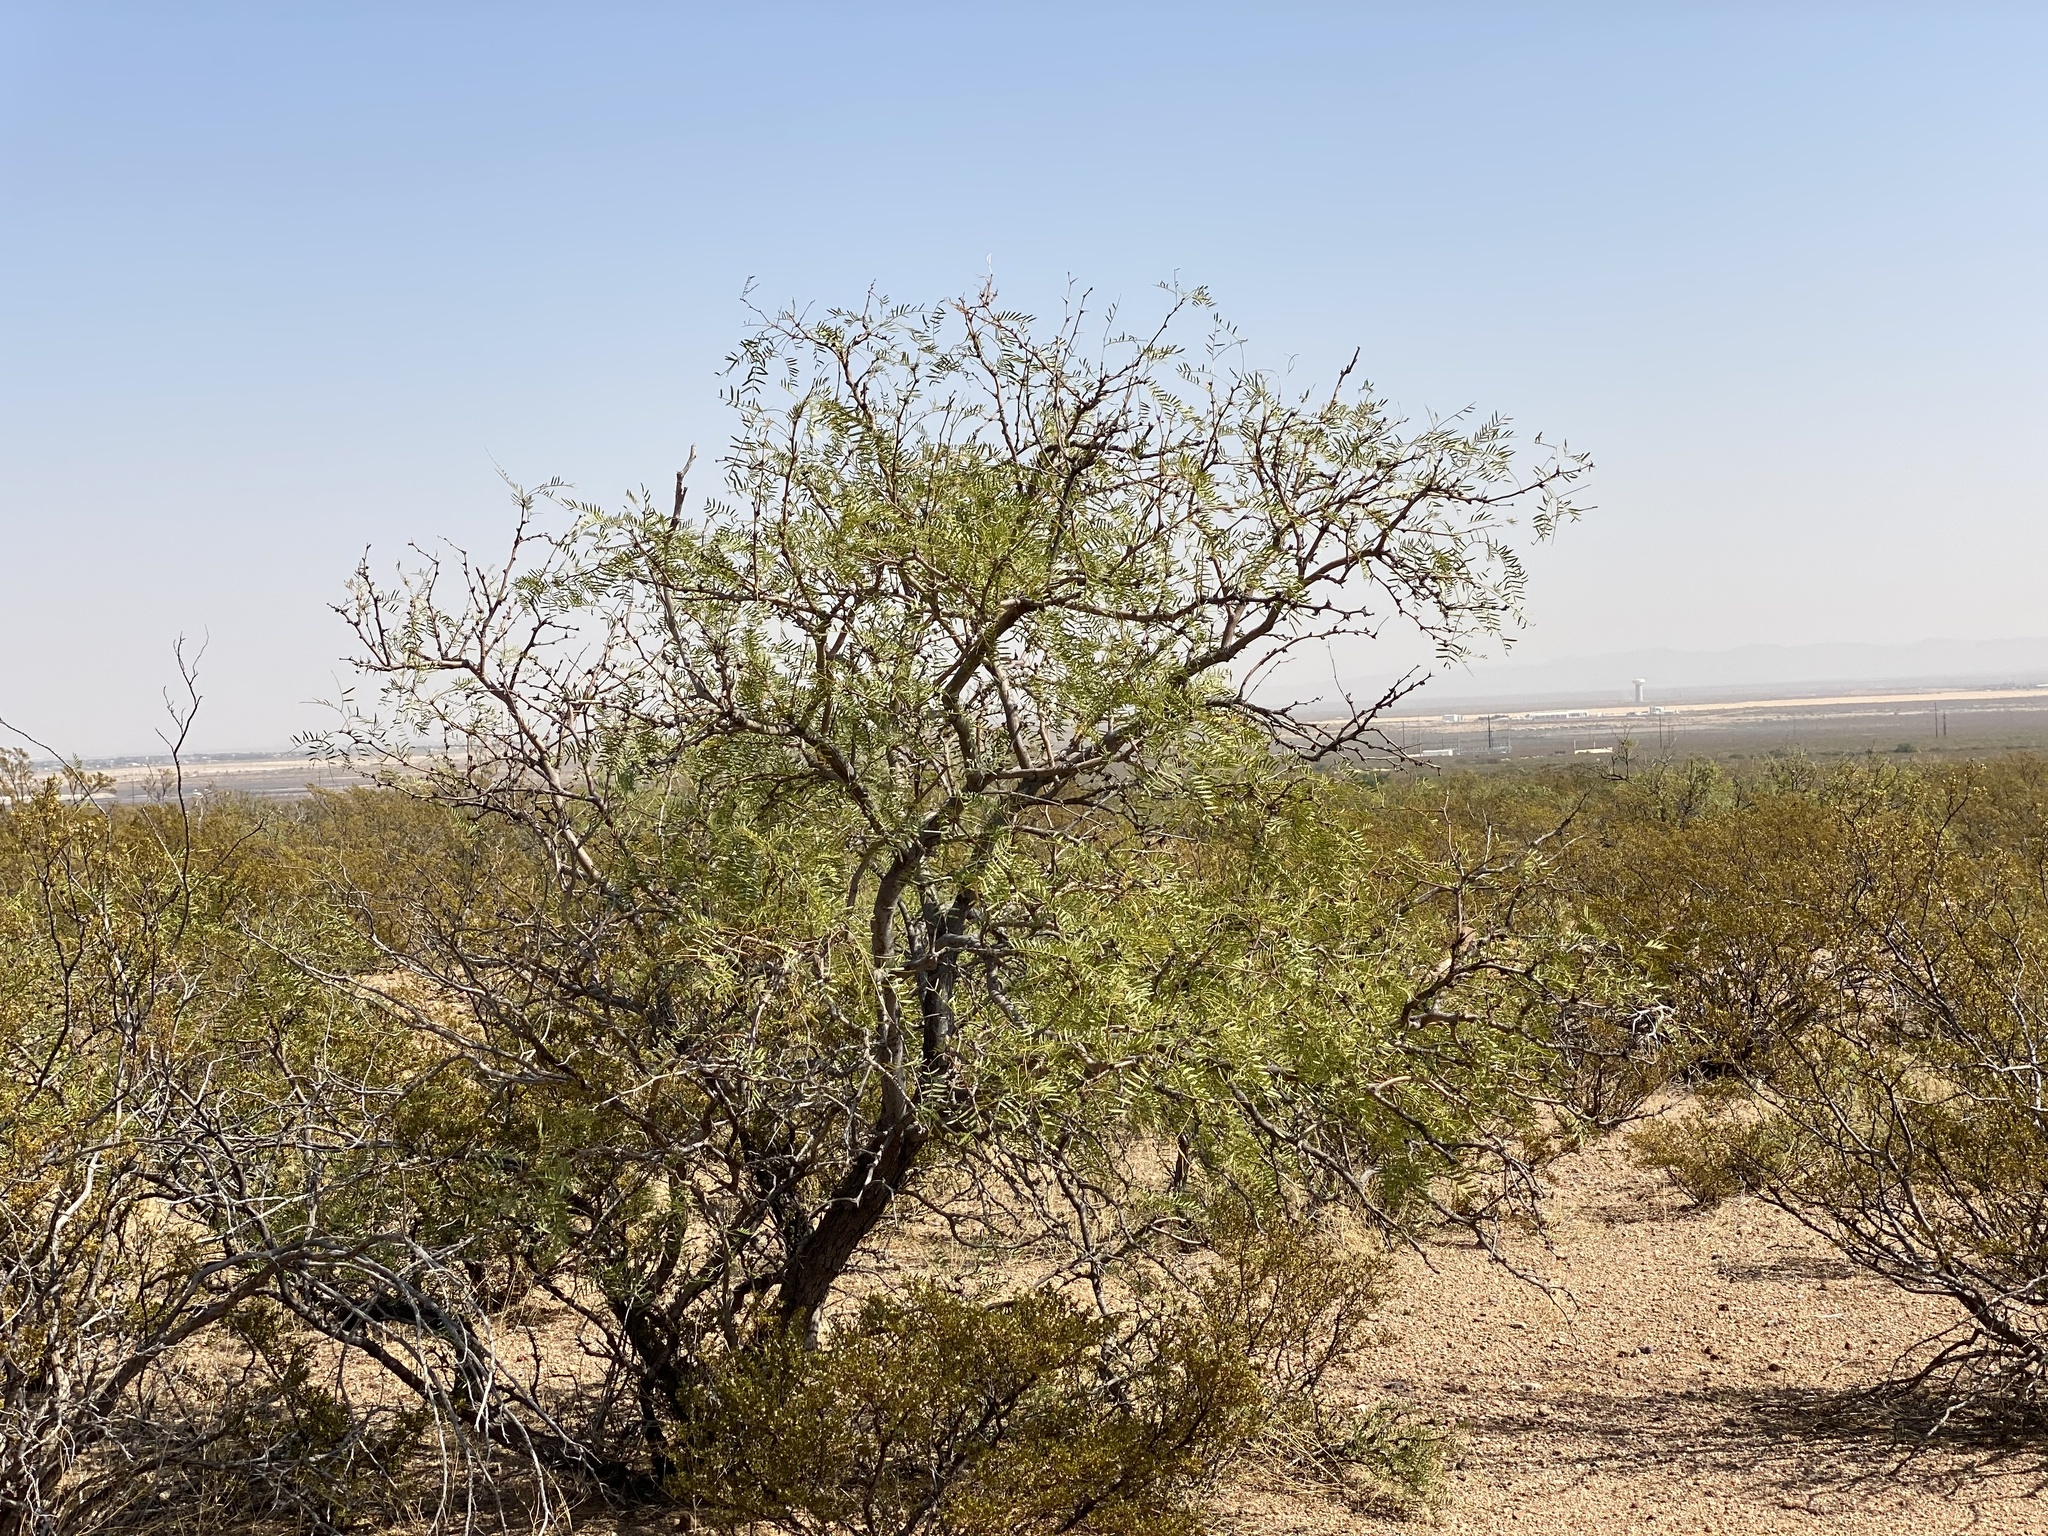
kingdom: Plantae
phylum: Tracheophyta
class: Magnoliopsida
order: Fabales
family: Fabaceae
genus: Prosopis
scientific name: Prosopis glandulosa
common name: Honey mesquite
